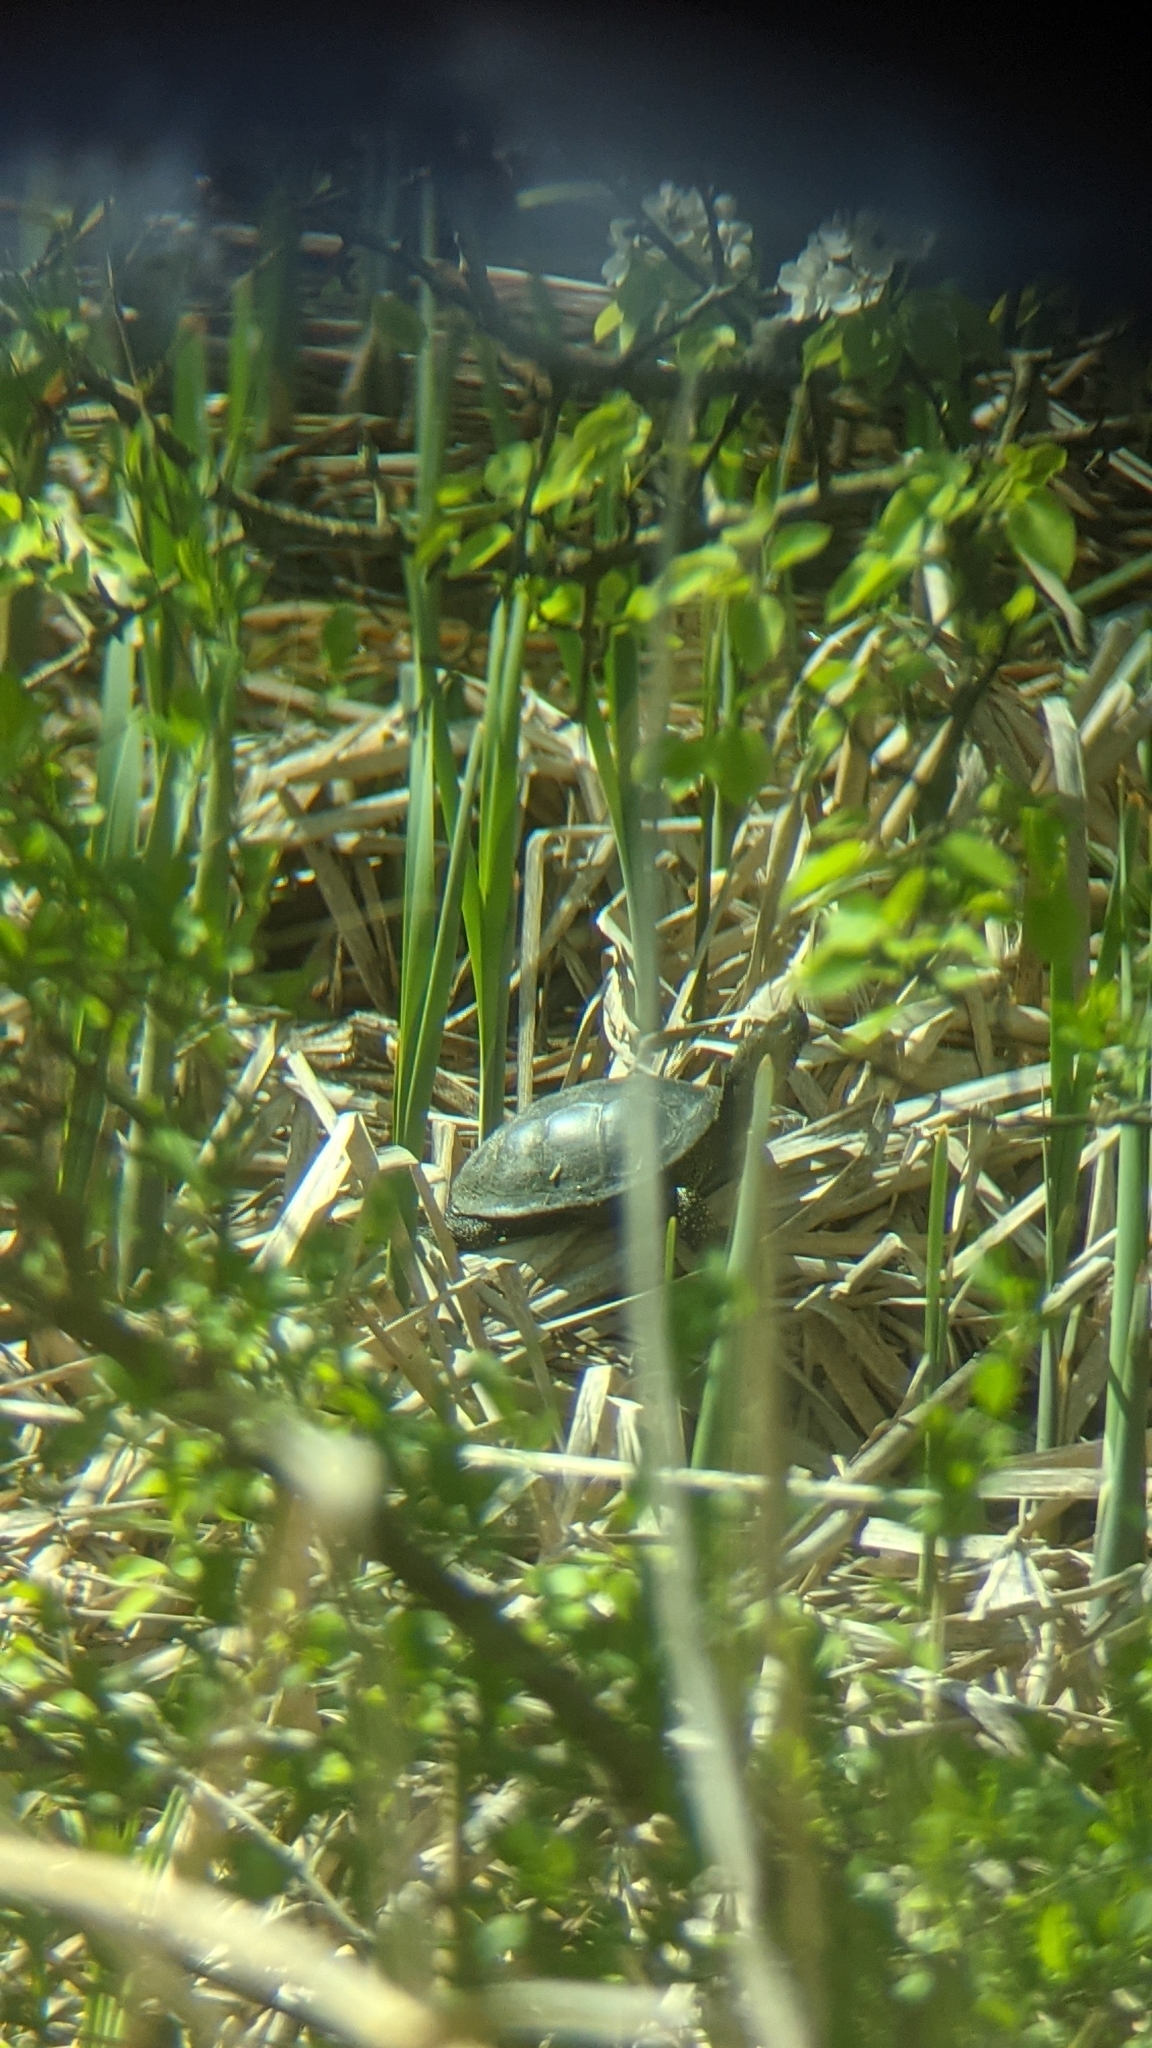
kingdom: Animalia
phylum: Chordata
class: Testudines
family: Emydidae
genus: Emys
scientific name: Emys orbicularis
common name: European pond turtle
